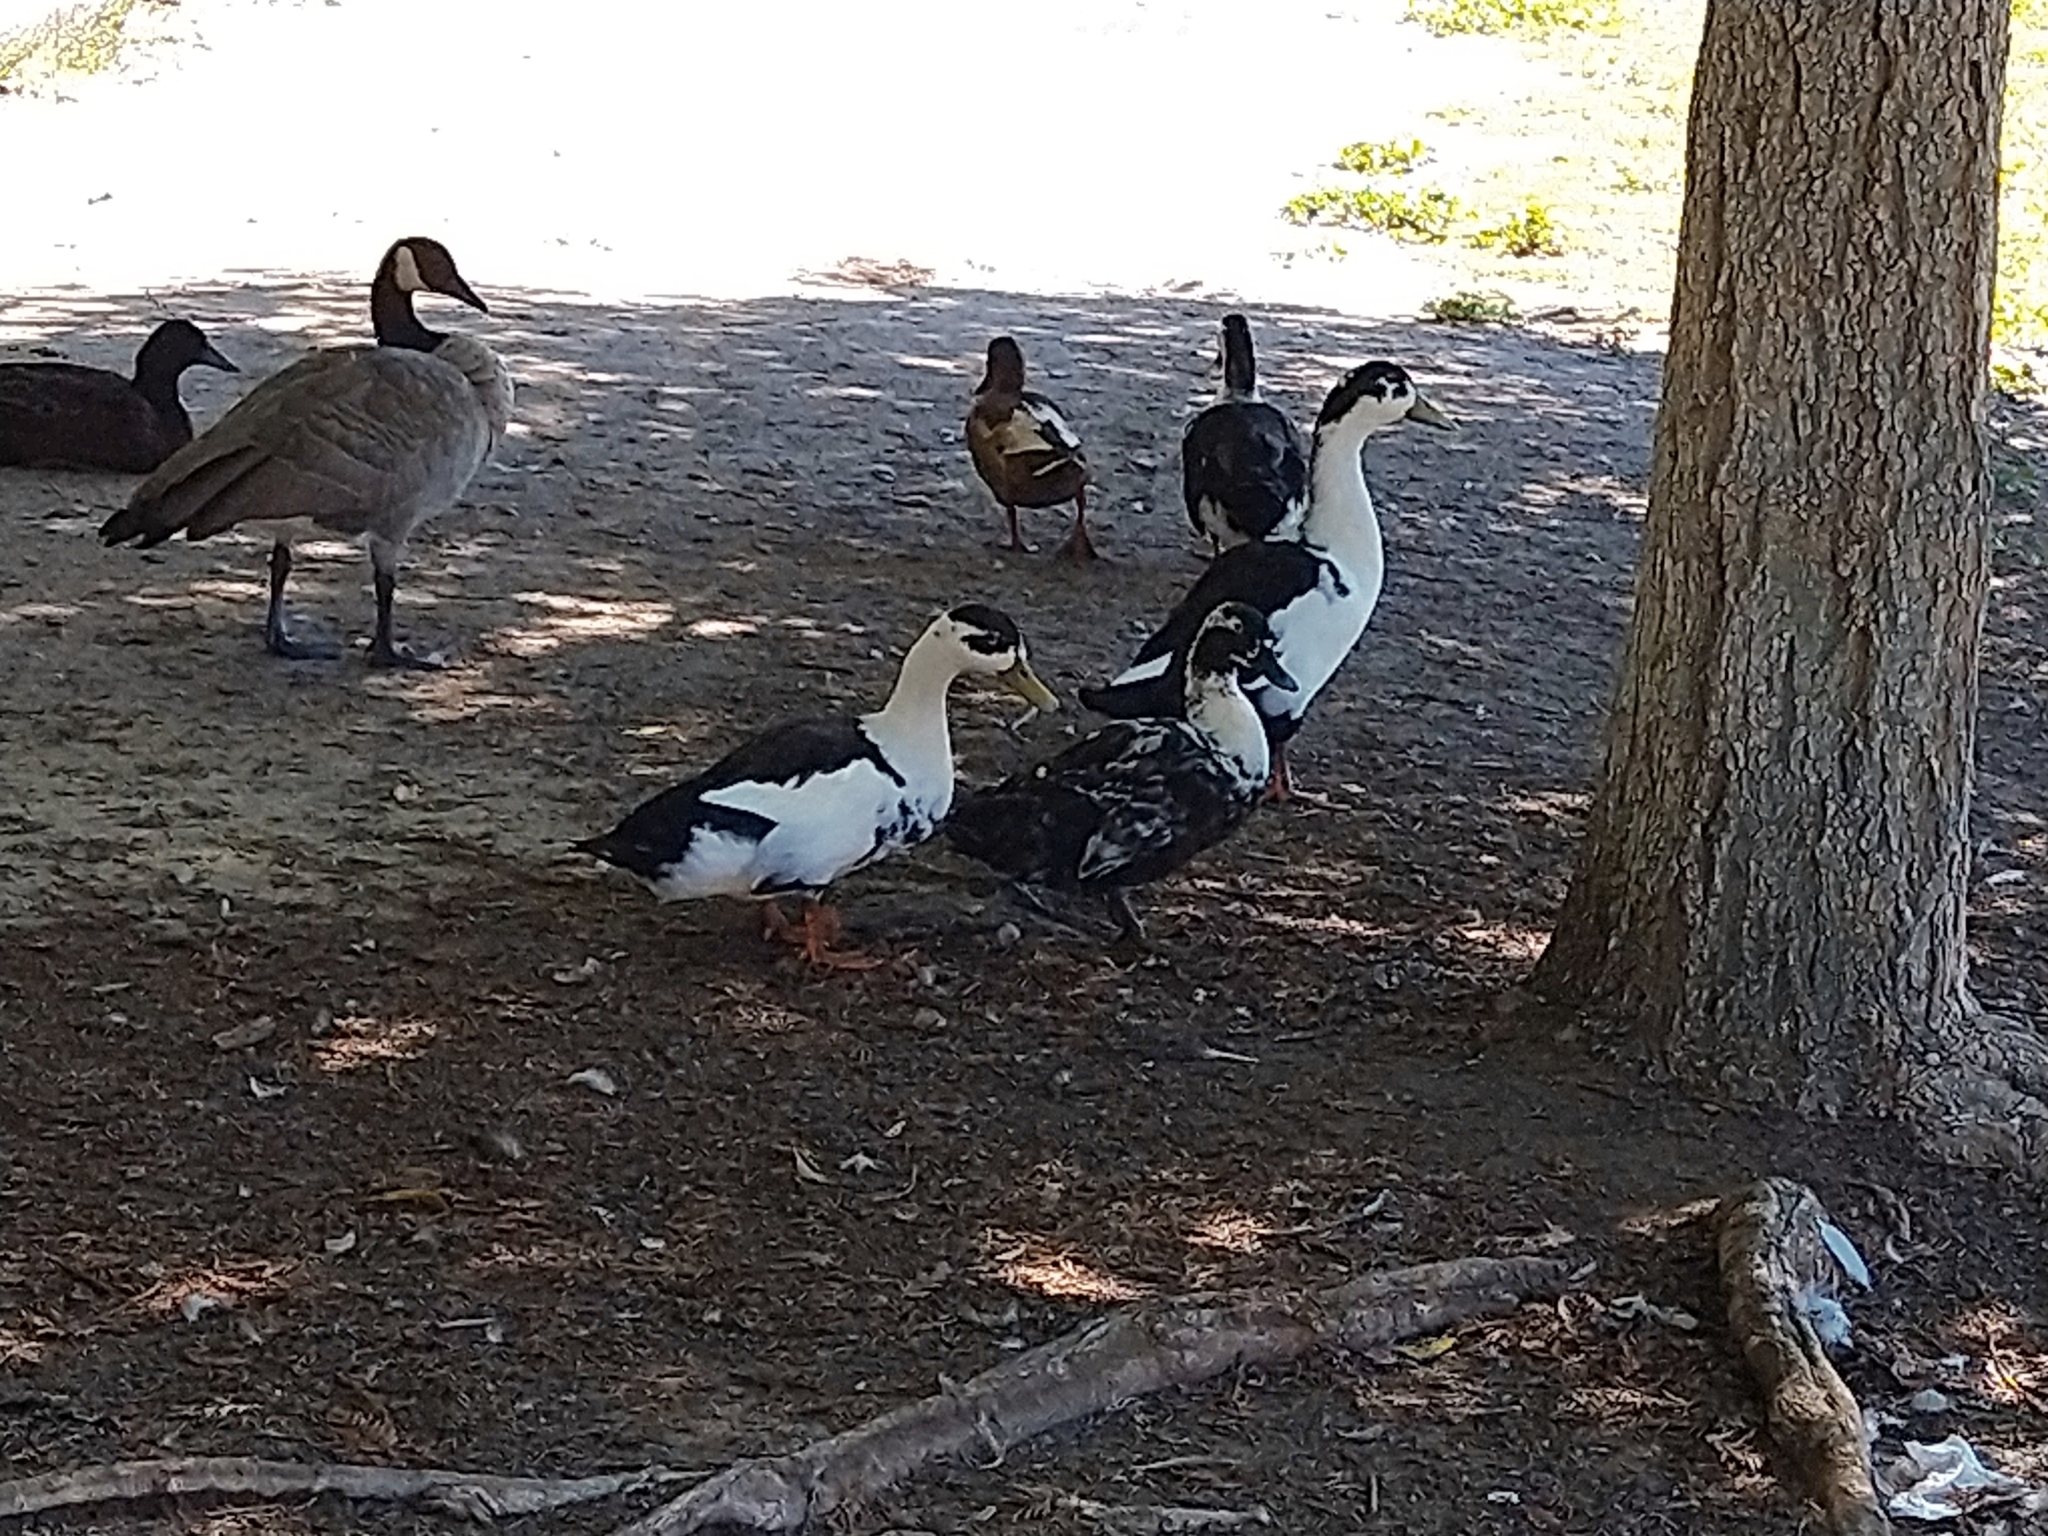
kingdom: Animalia
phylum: Chordata
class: Aves
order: Anseriformes
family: Anatidae
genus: Anas
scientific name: Anas platyrhynchos
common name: Mallard
